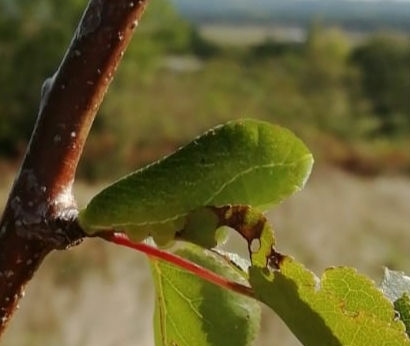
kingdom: Animalia
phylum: Arthropoda
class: Insecta
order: Lepidoptera
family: Papilionidae
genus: Iphiclides
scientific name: Iphiclides podalirius
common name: Scarce swallowtail
